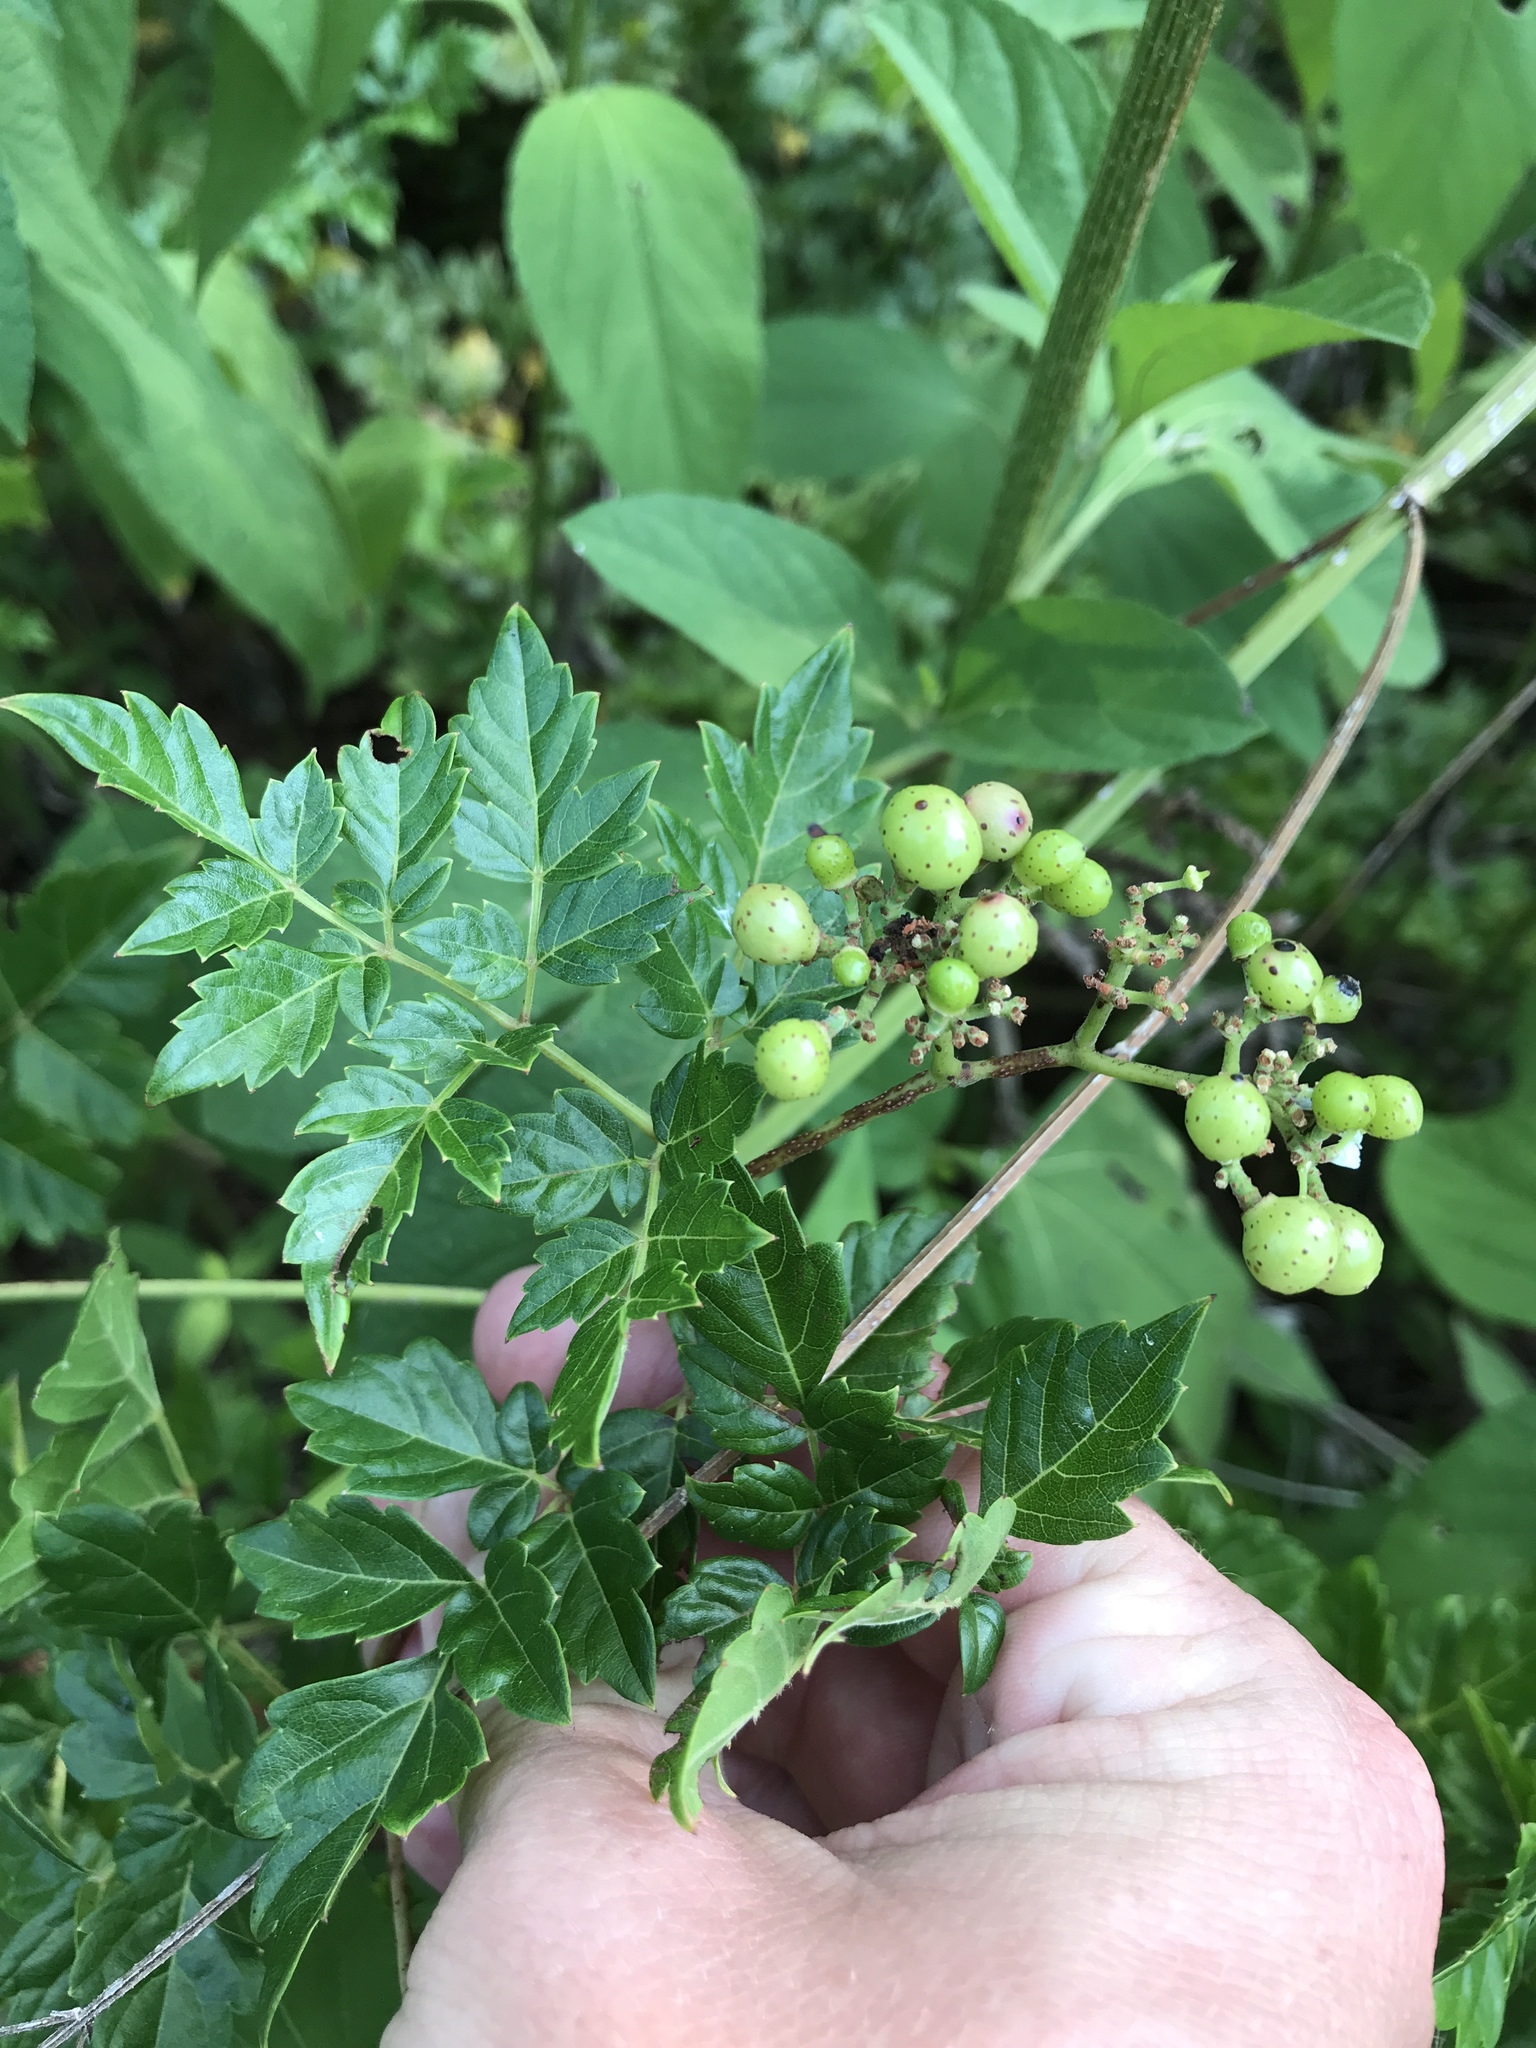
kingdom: Plantae
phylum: Tracheophyta
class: Magnoliopsida
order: Vitales
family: Vitaceae
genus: Nekemias
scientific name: Nekemias arborea
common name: Peppervine
